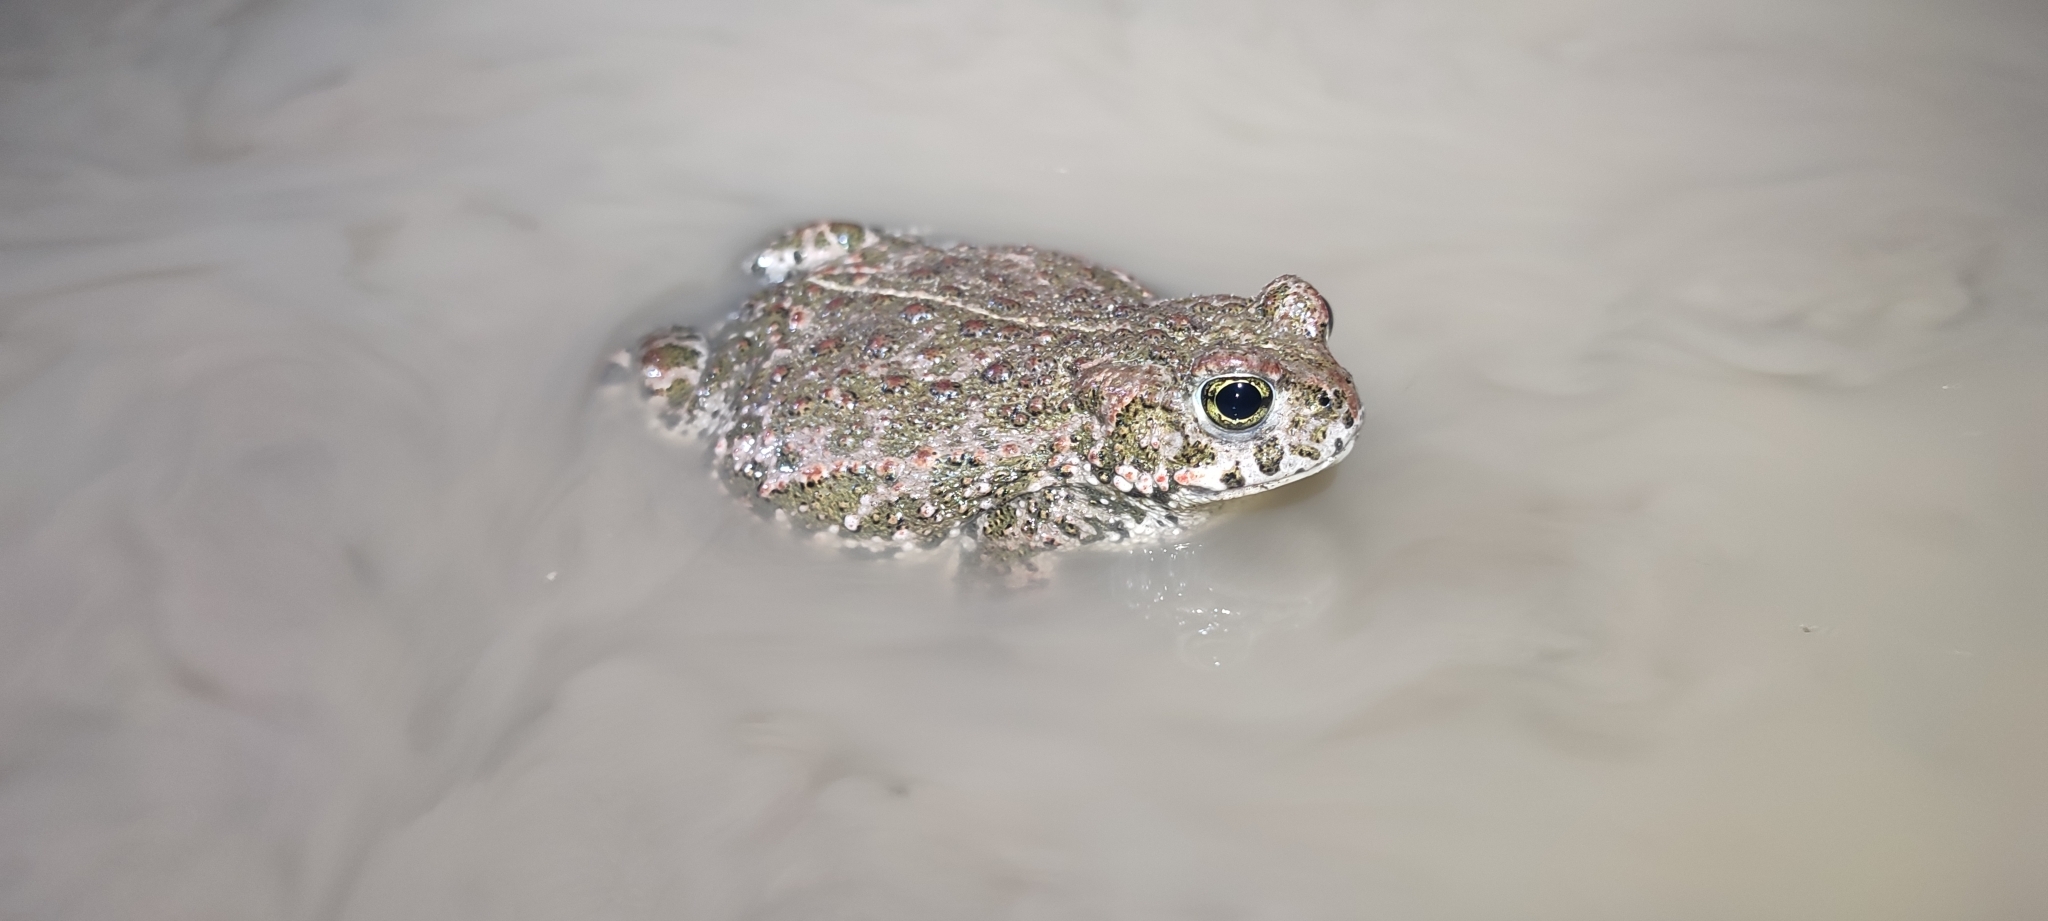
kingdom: Animalia
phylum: Chordata
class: Amphibia
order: Anura
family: Bufonidae
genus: Epidalea
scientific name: Epidalea calamita
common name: Natterjack toad
